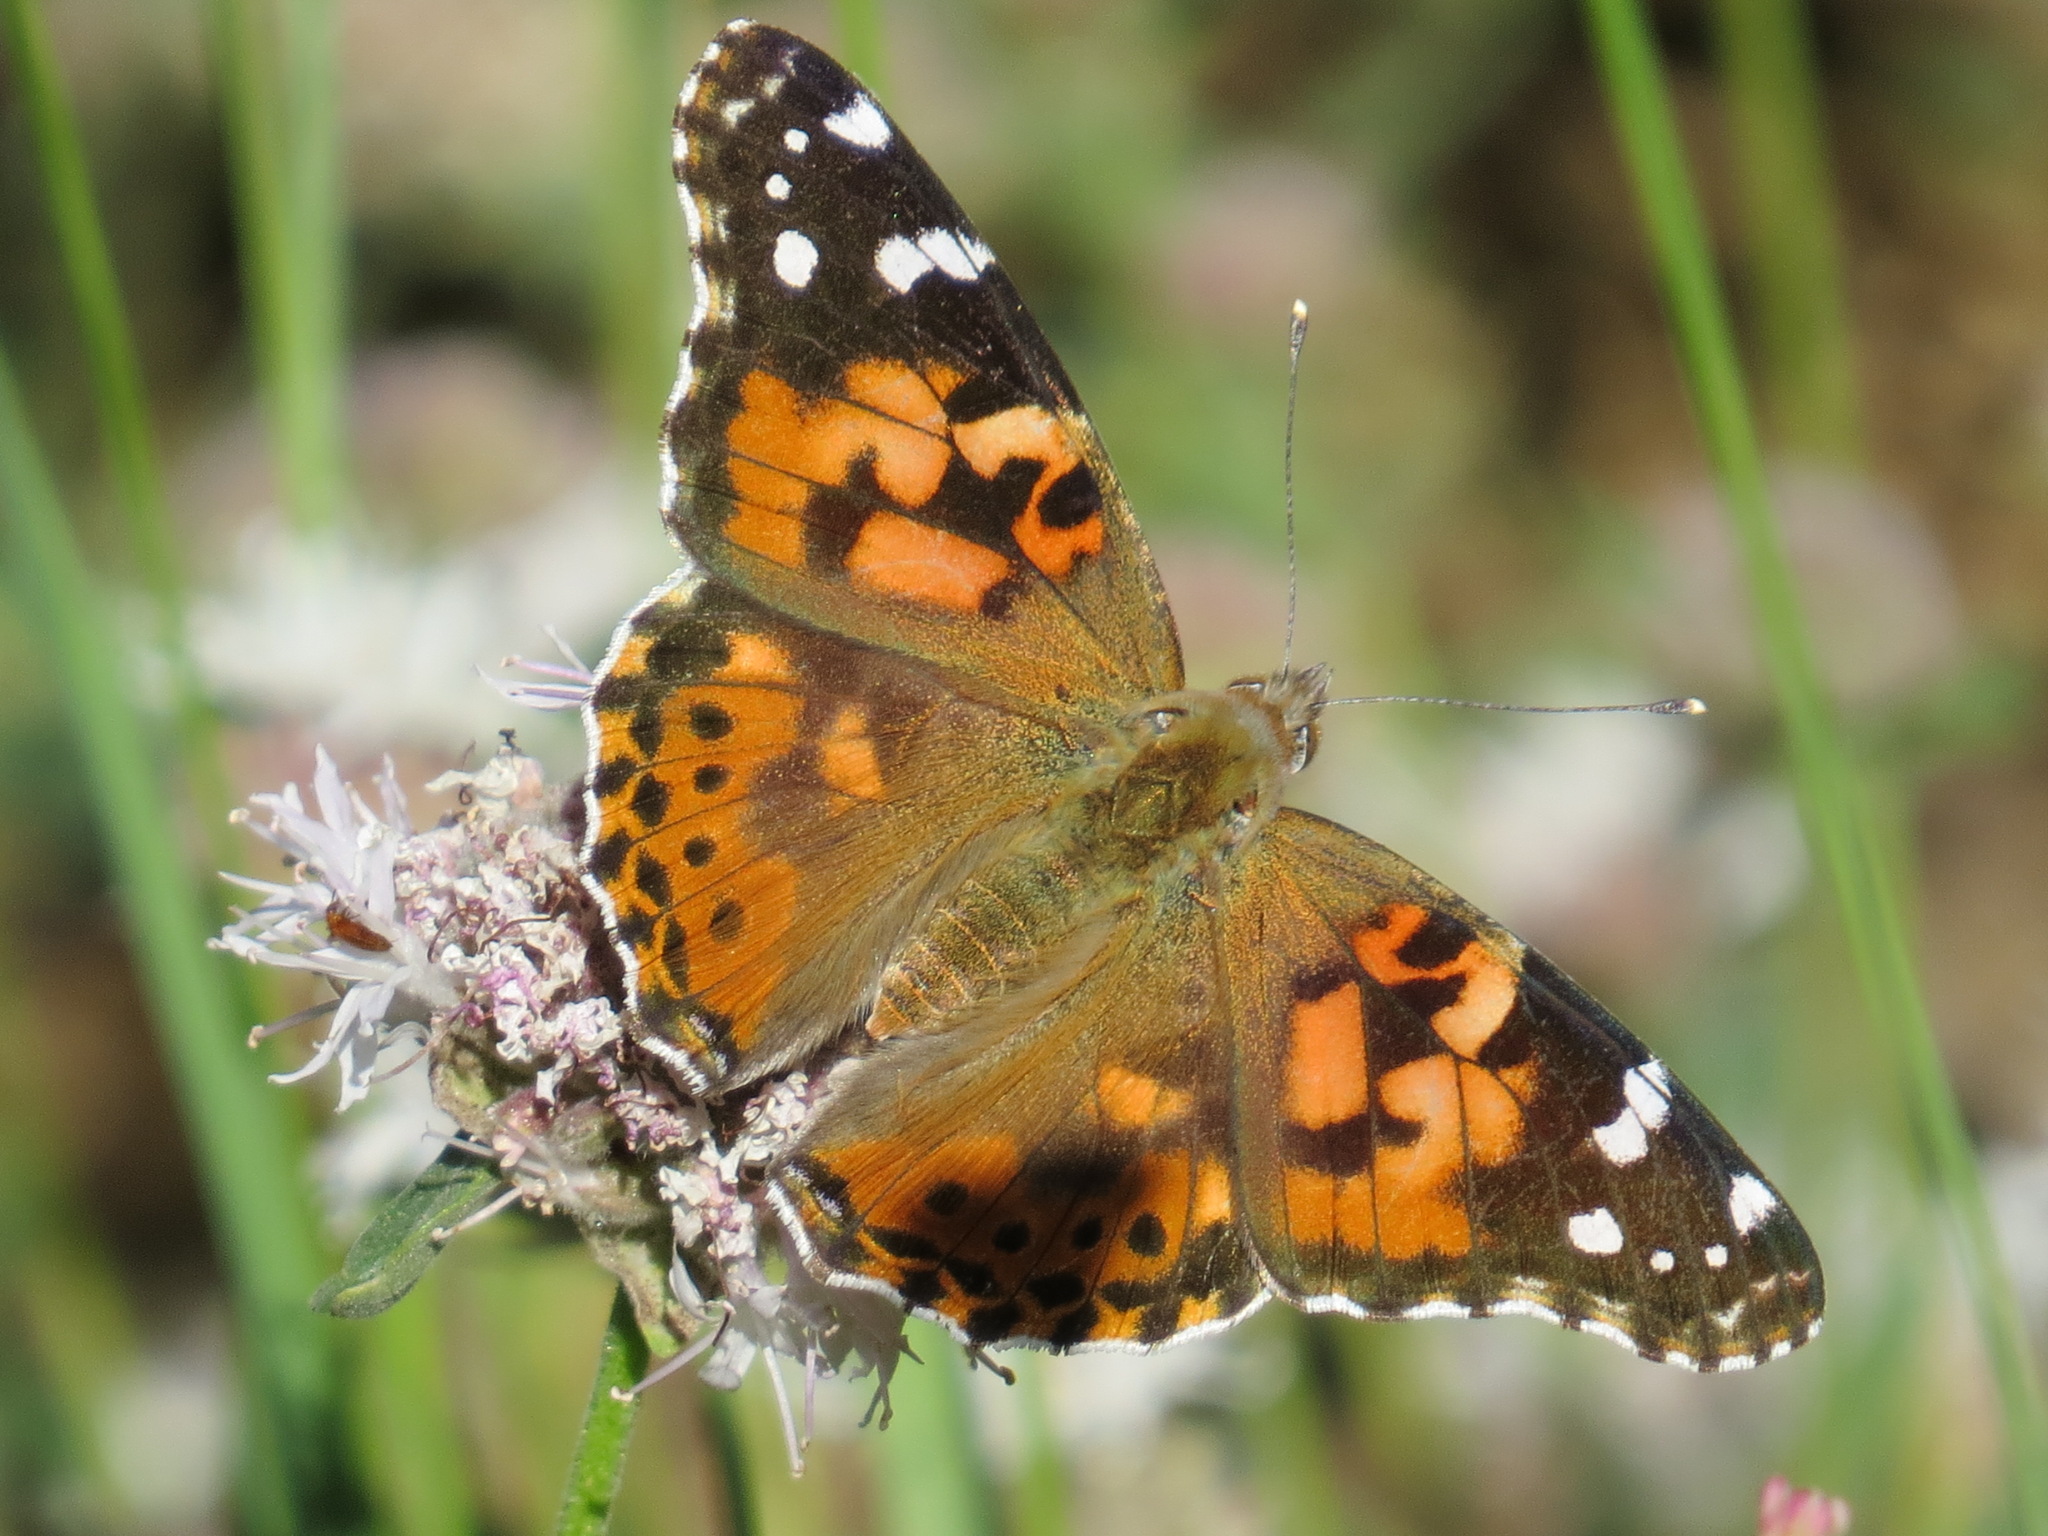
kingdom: Animalia
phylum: Arthropoda
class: Insecta
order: Lepidoptera
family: Nymphalidae
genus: Vanessa
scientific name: Vanessa cardui
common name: Painted lady
